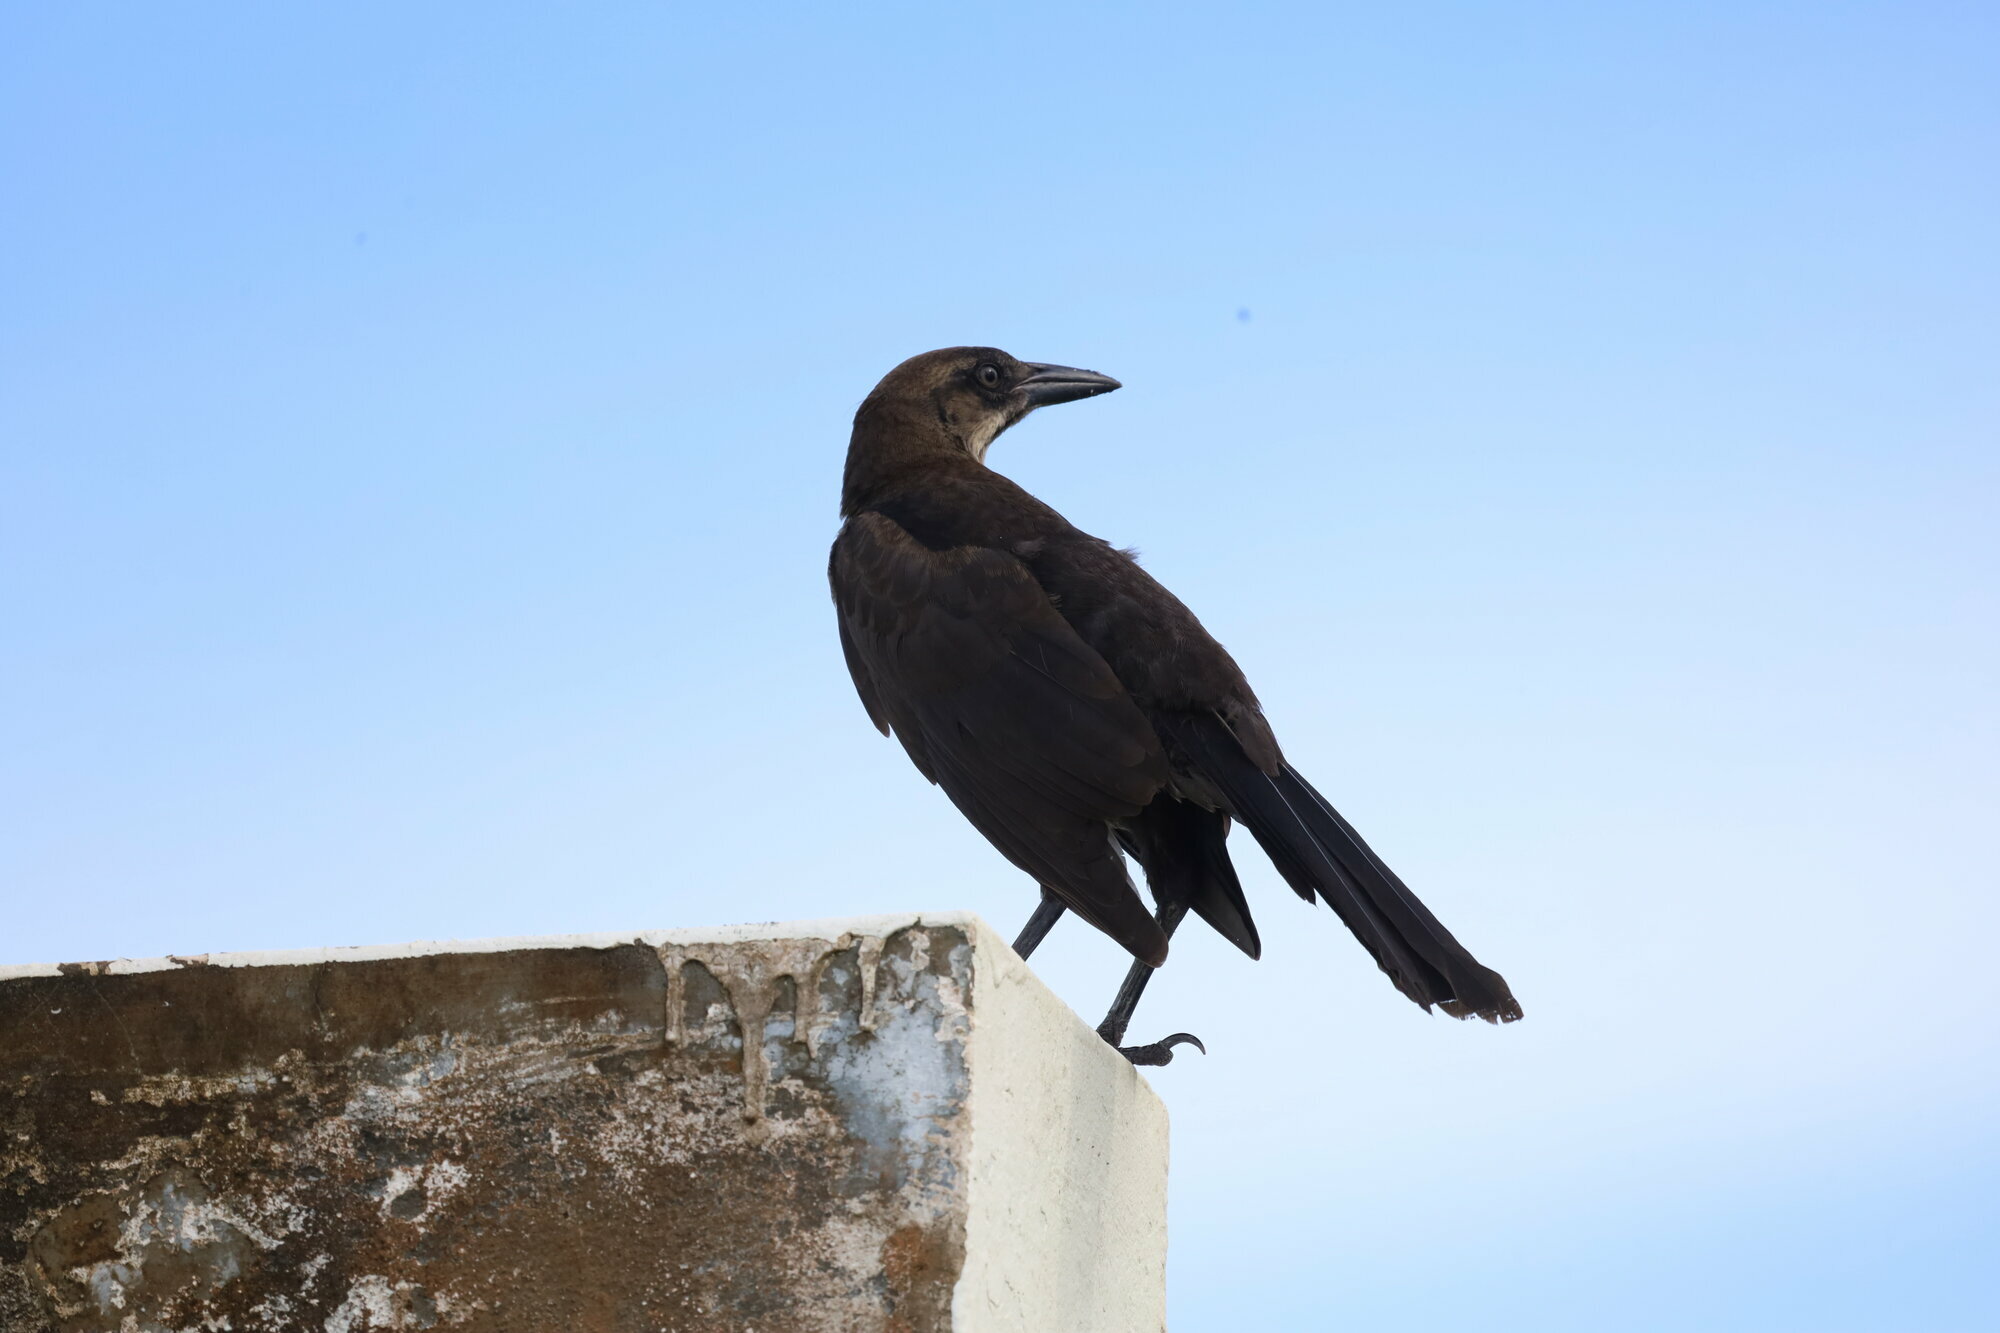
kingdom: Animalia
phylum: Chordata
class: Aves
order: Passeriformes
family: Icteridae
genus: Quiscalus
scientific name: Quiscalus mexicanus
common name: Great-tailed grackle
